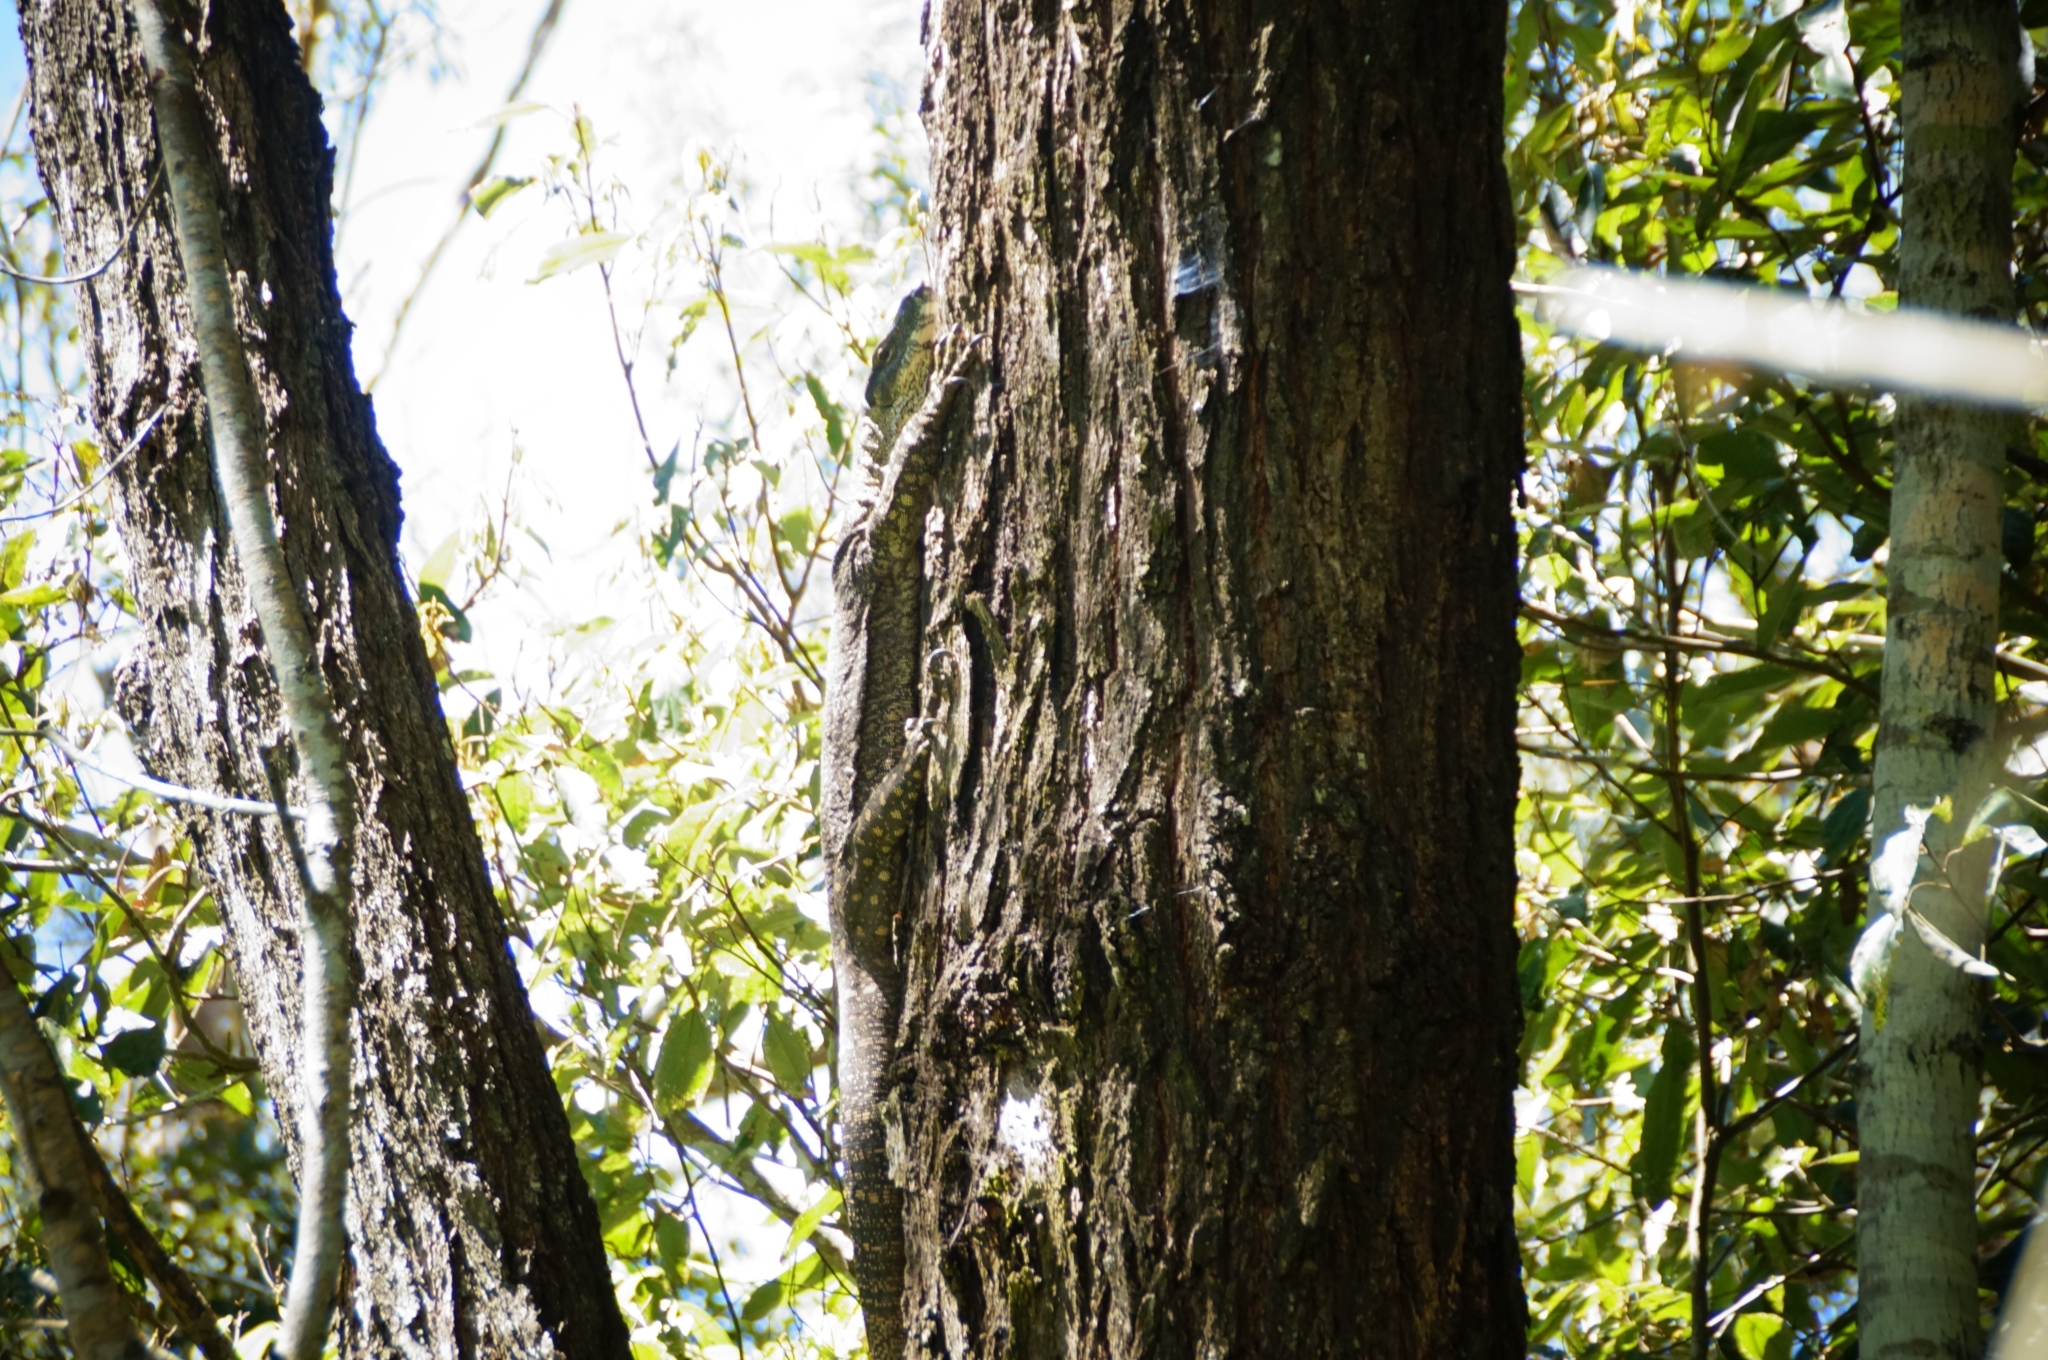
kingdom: Animalia
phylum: Chordata
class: Squamata
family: Varanidae
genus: Varanus
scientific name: Varanus varius
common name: Lace monitor
